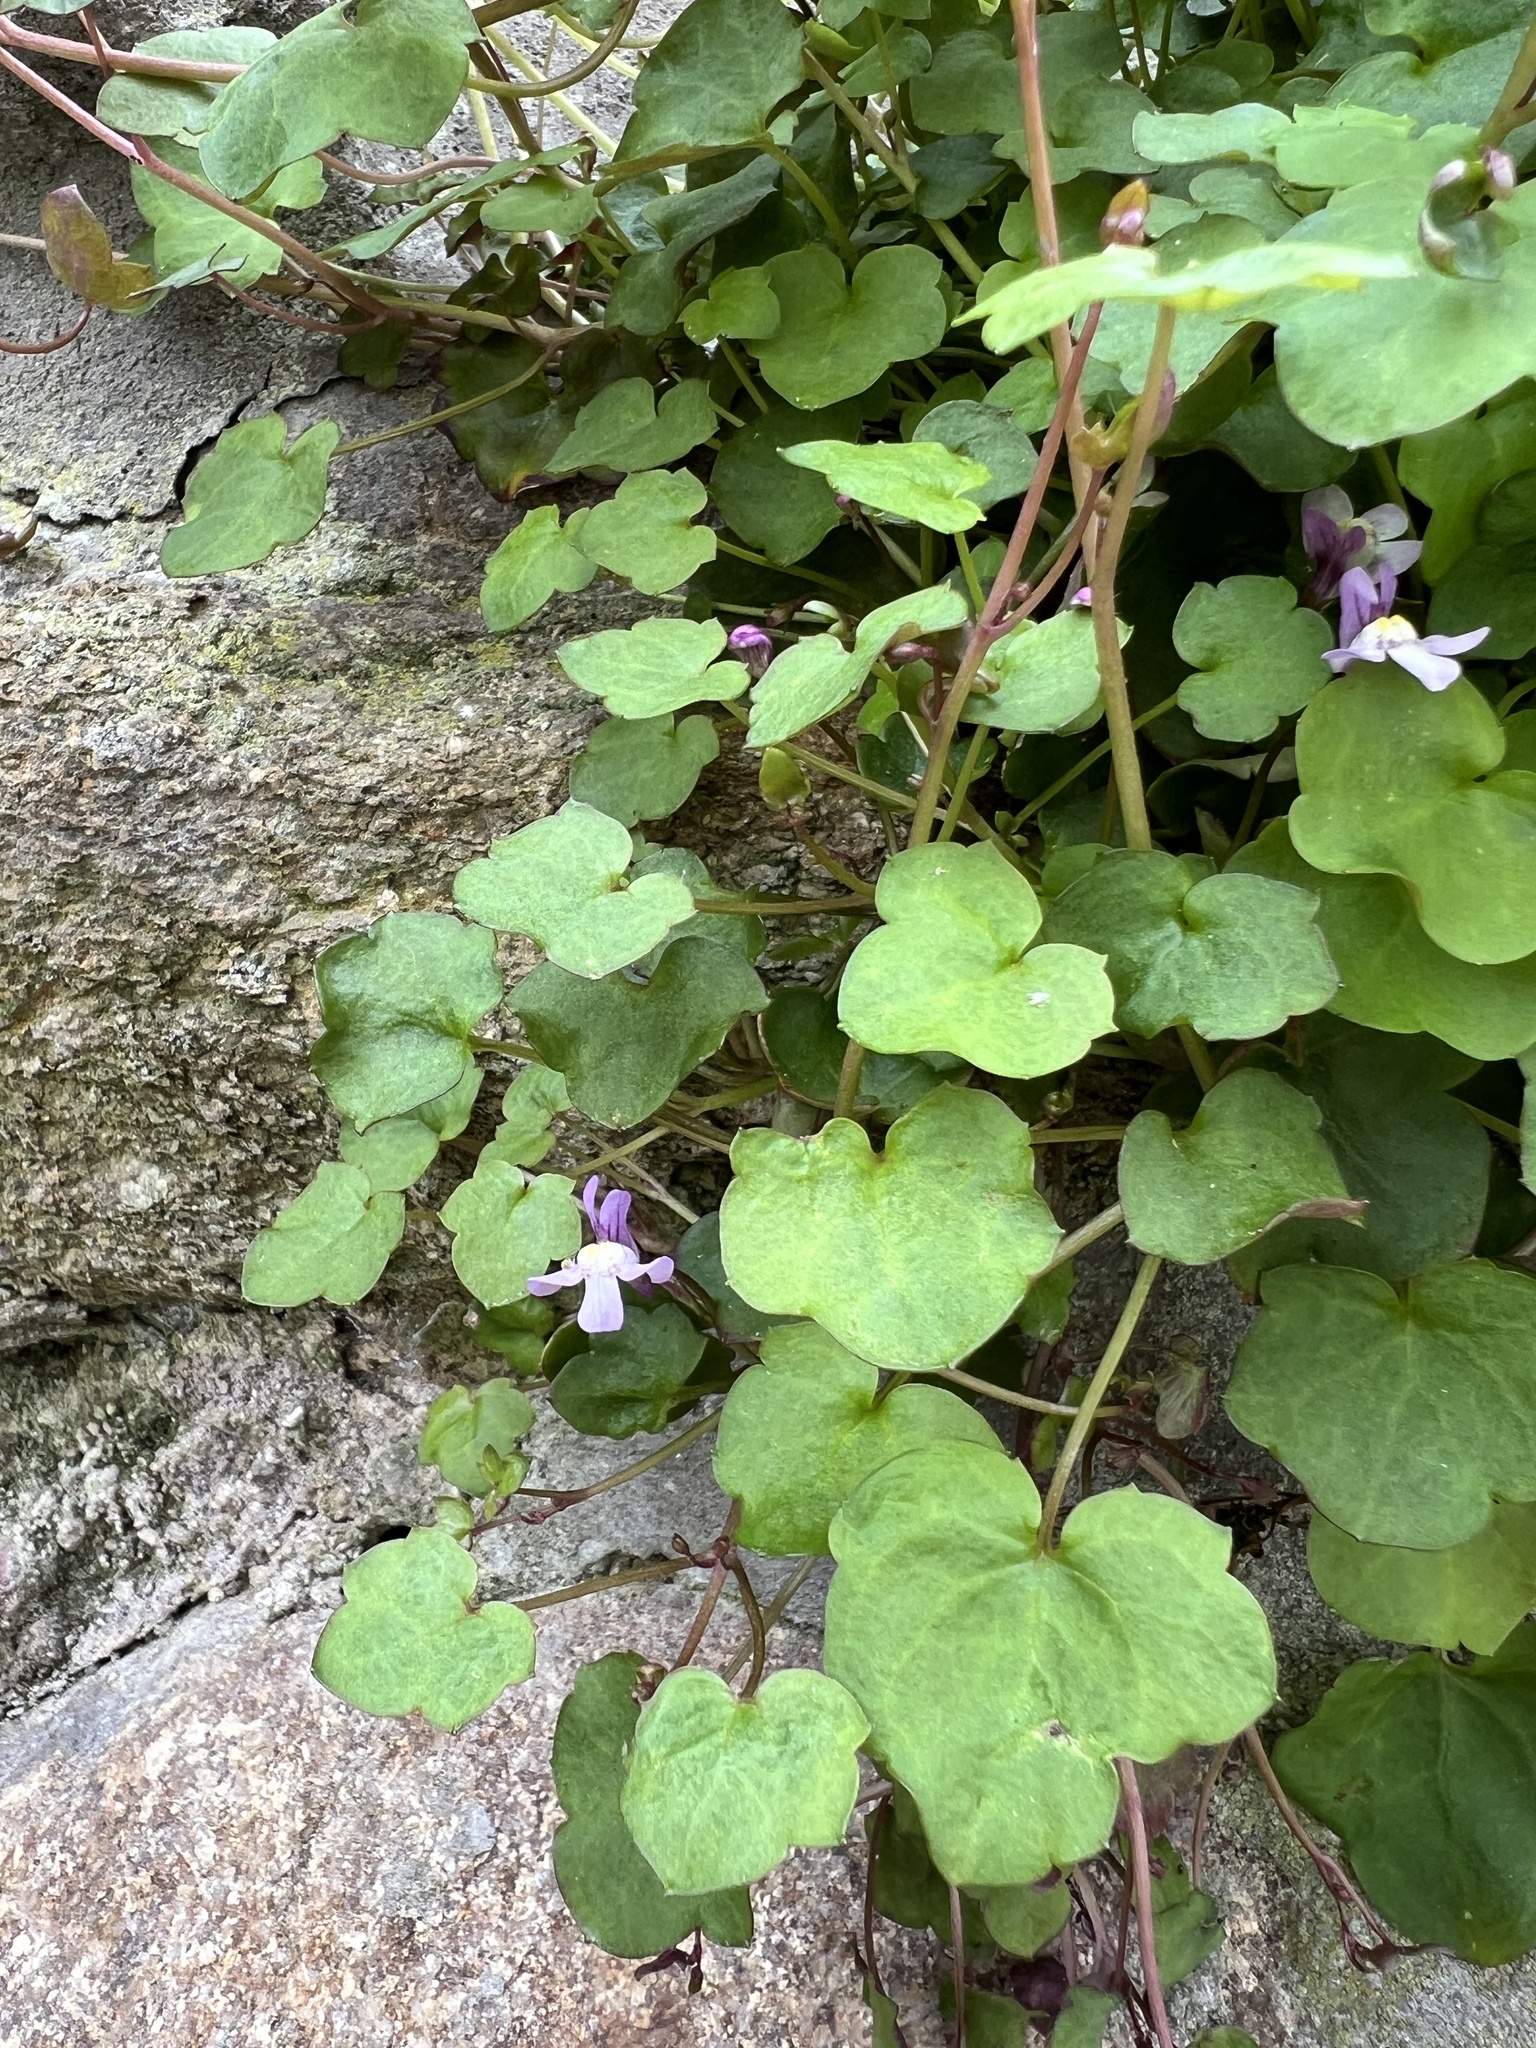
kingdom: Plantae
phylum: Tracheophyta
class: Magnoliopsida
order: Lamiales
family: Plantaginaceae
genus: Cymbalaria
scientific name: Cymbalaria muralis
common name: Ivy-leaved toadflax
